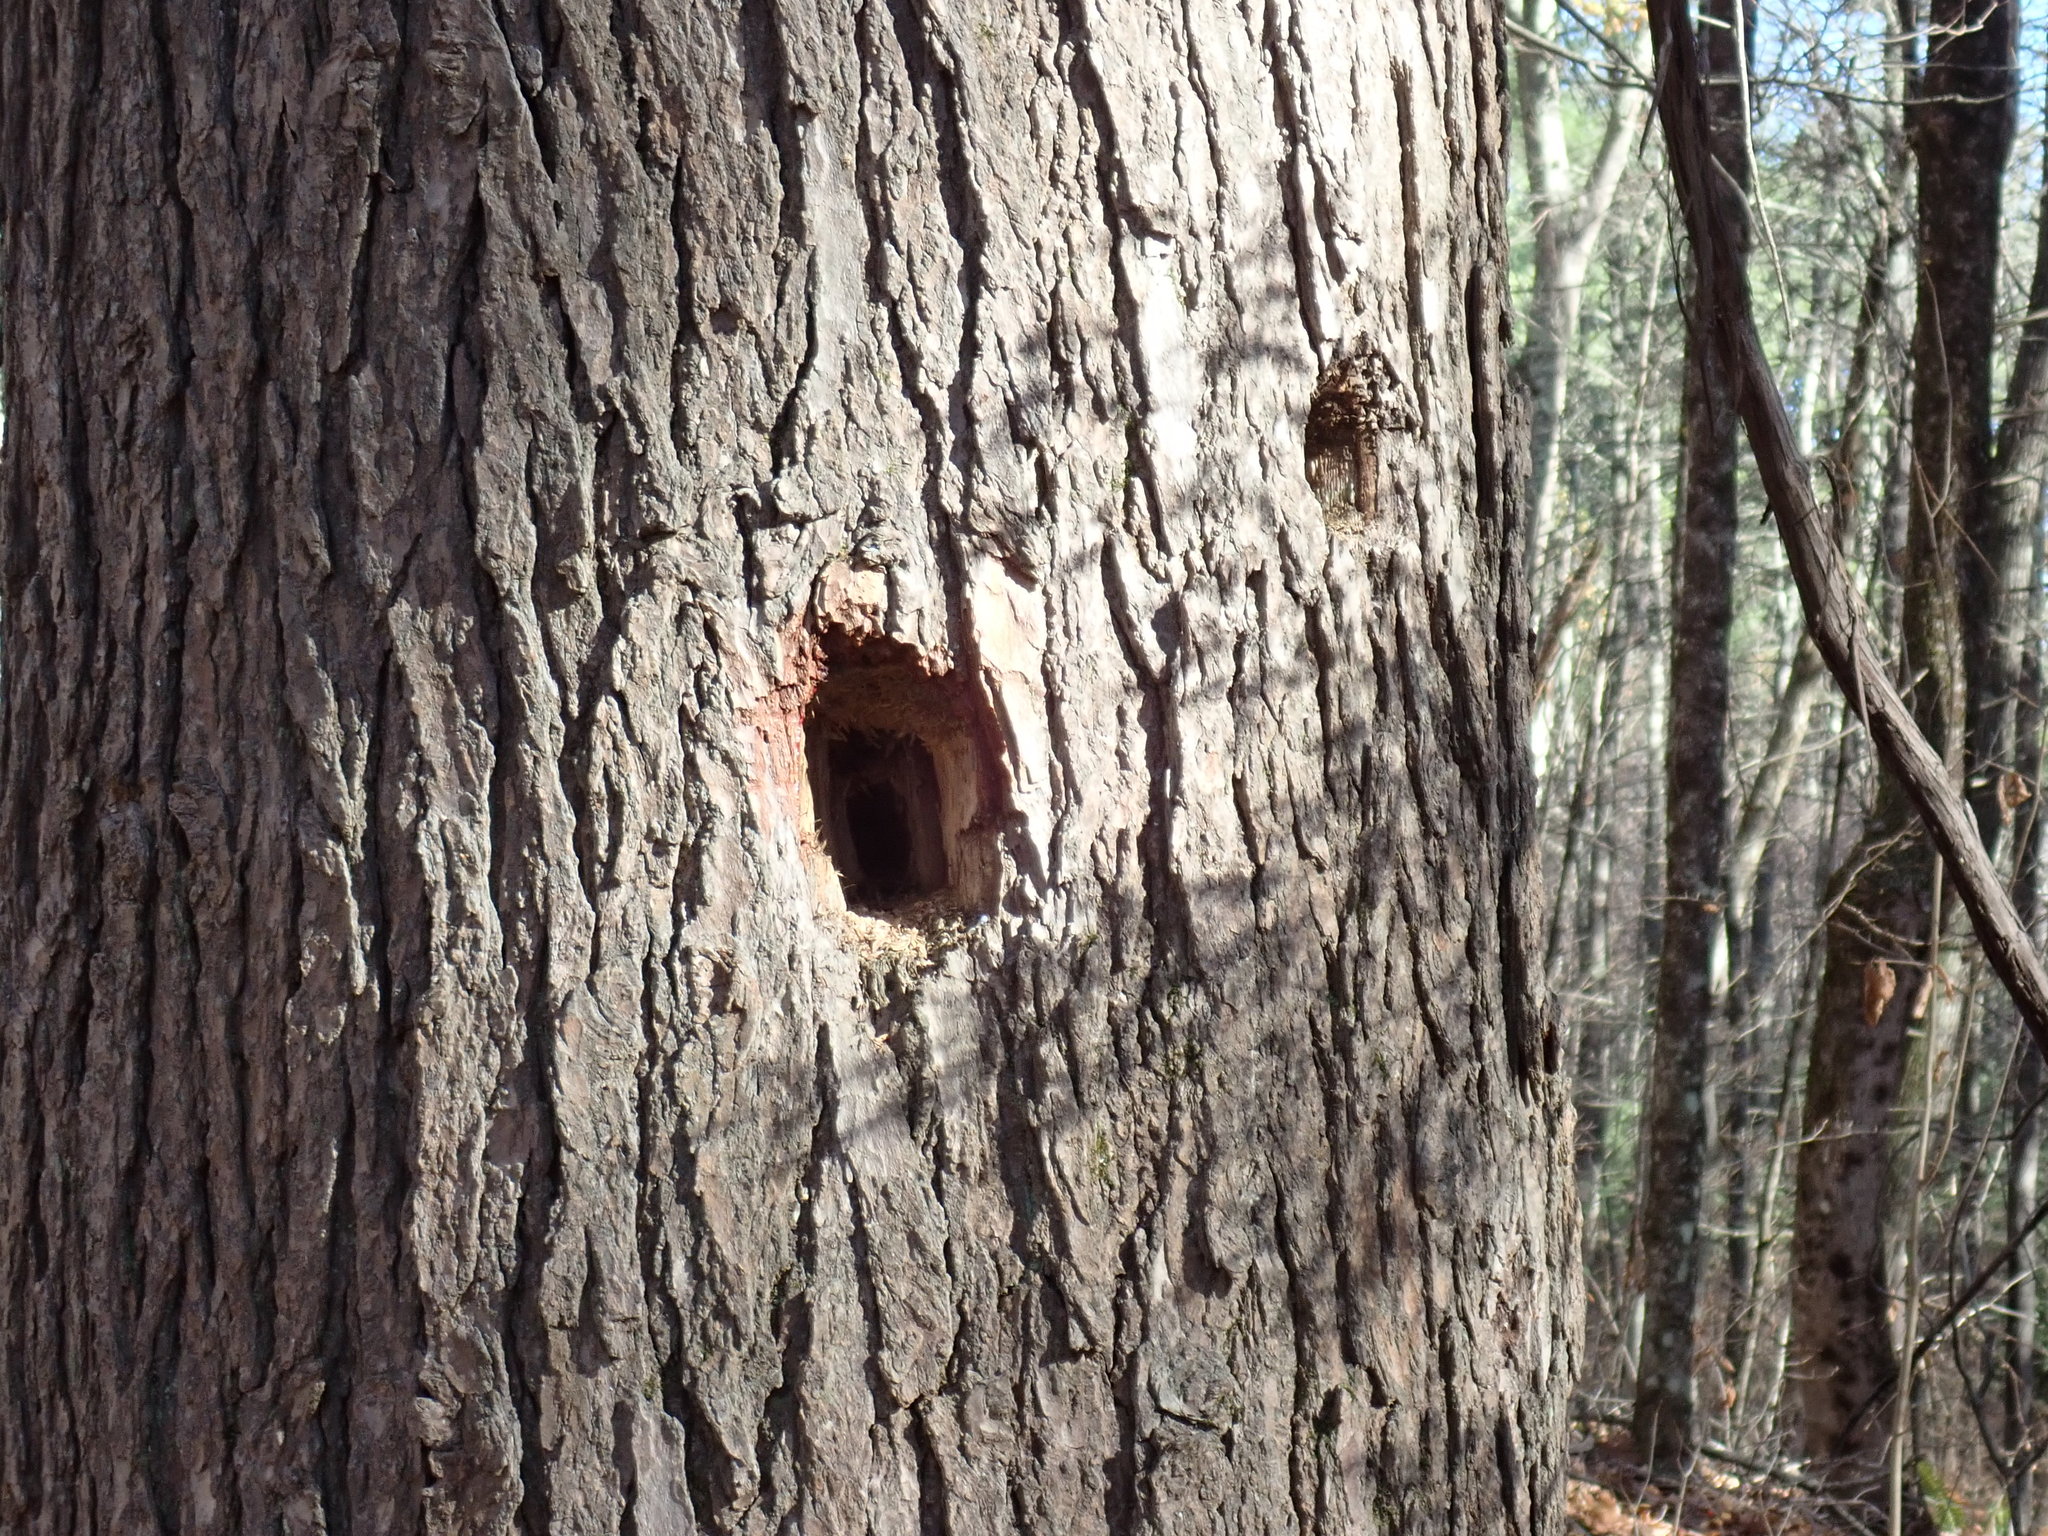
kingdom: Animalia
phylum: Chordata
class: Aves
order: Piciformes
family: Picidae
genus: Dryocopus
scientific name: Dryocopus pileatus
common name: Pileated woodpecker
